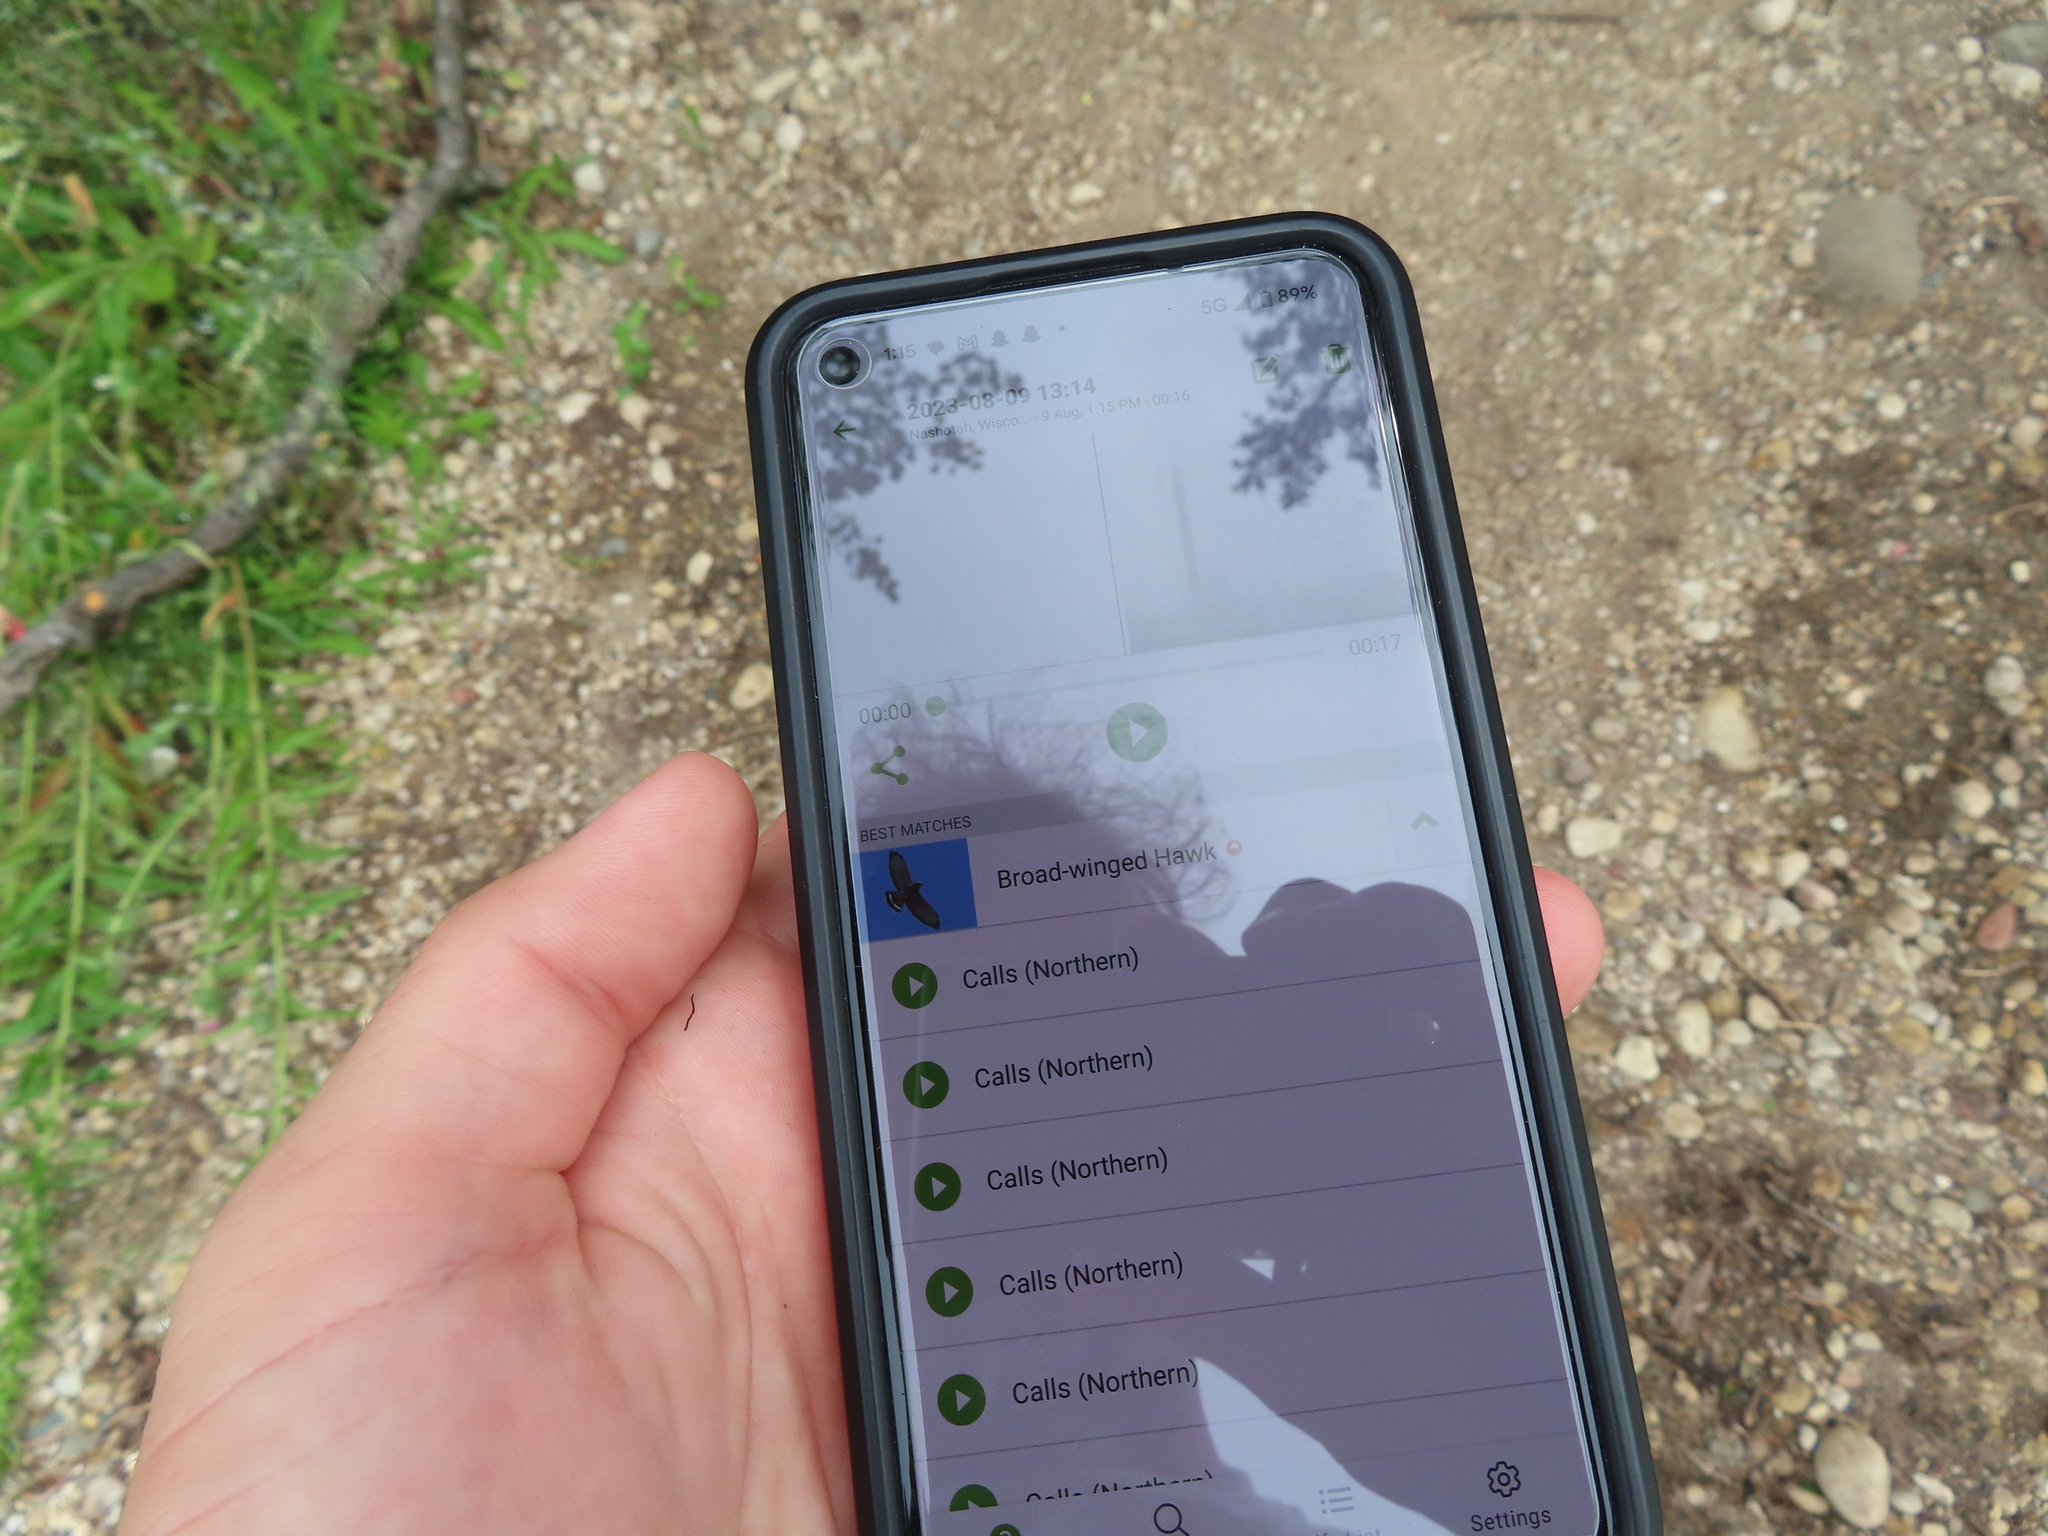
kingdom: Animalia
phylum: Chordata
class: Aves
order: Accipitriformes
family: Accipitridae
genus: Buteo
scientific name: Buteo platypterus
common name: Broad-winged hawk
